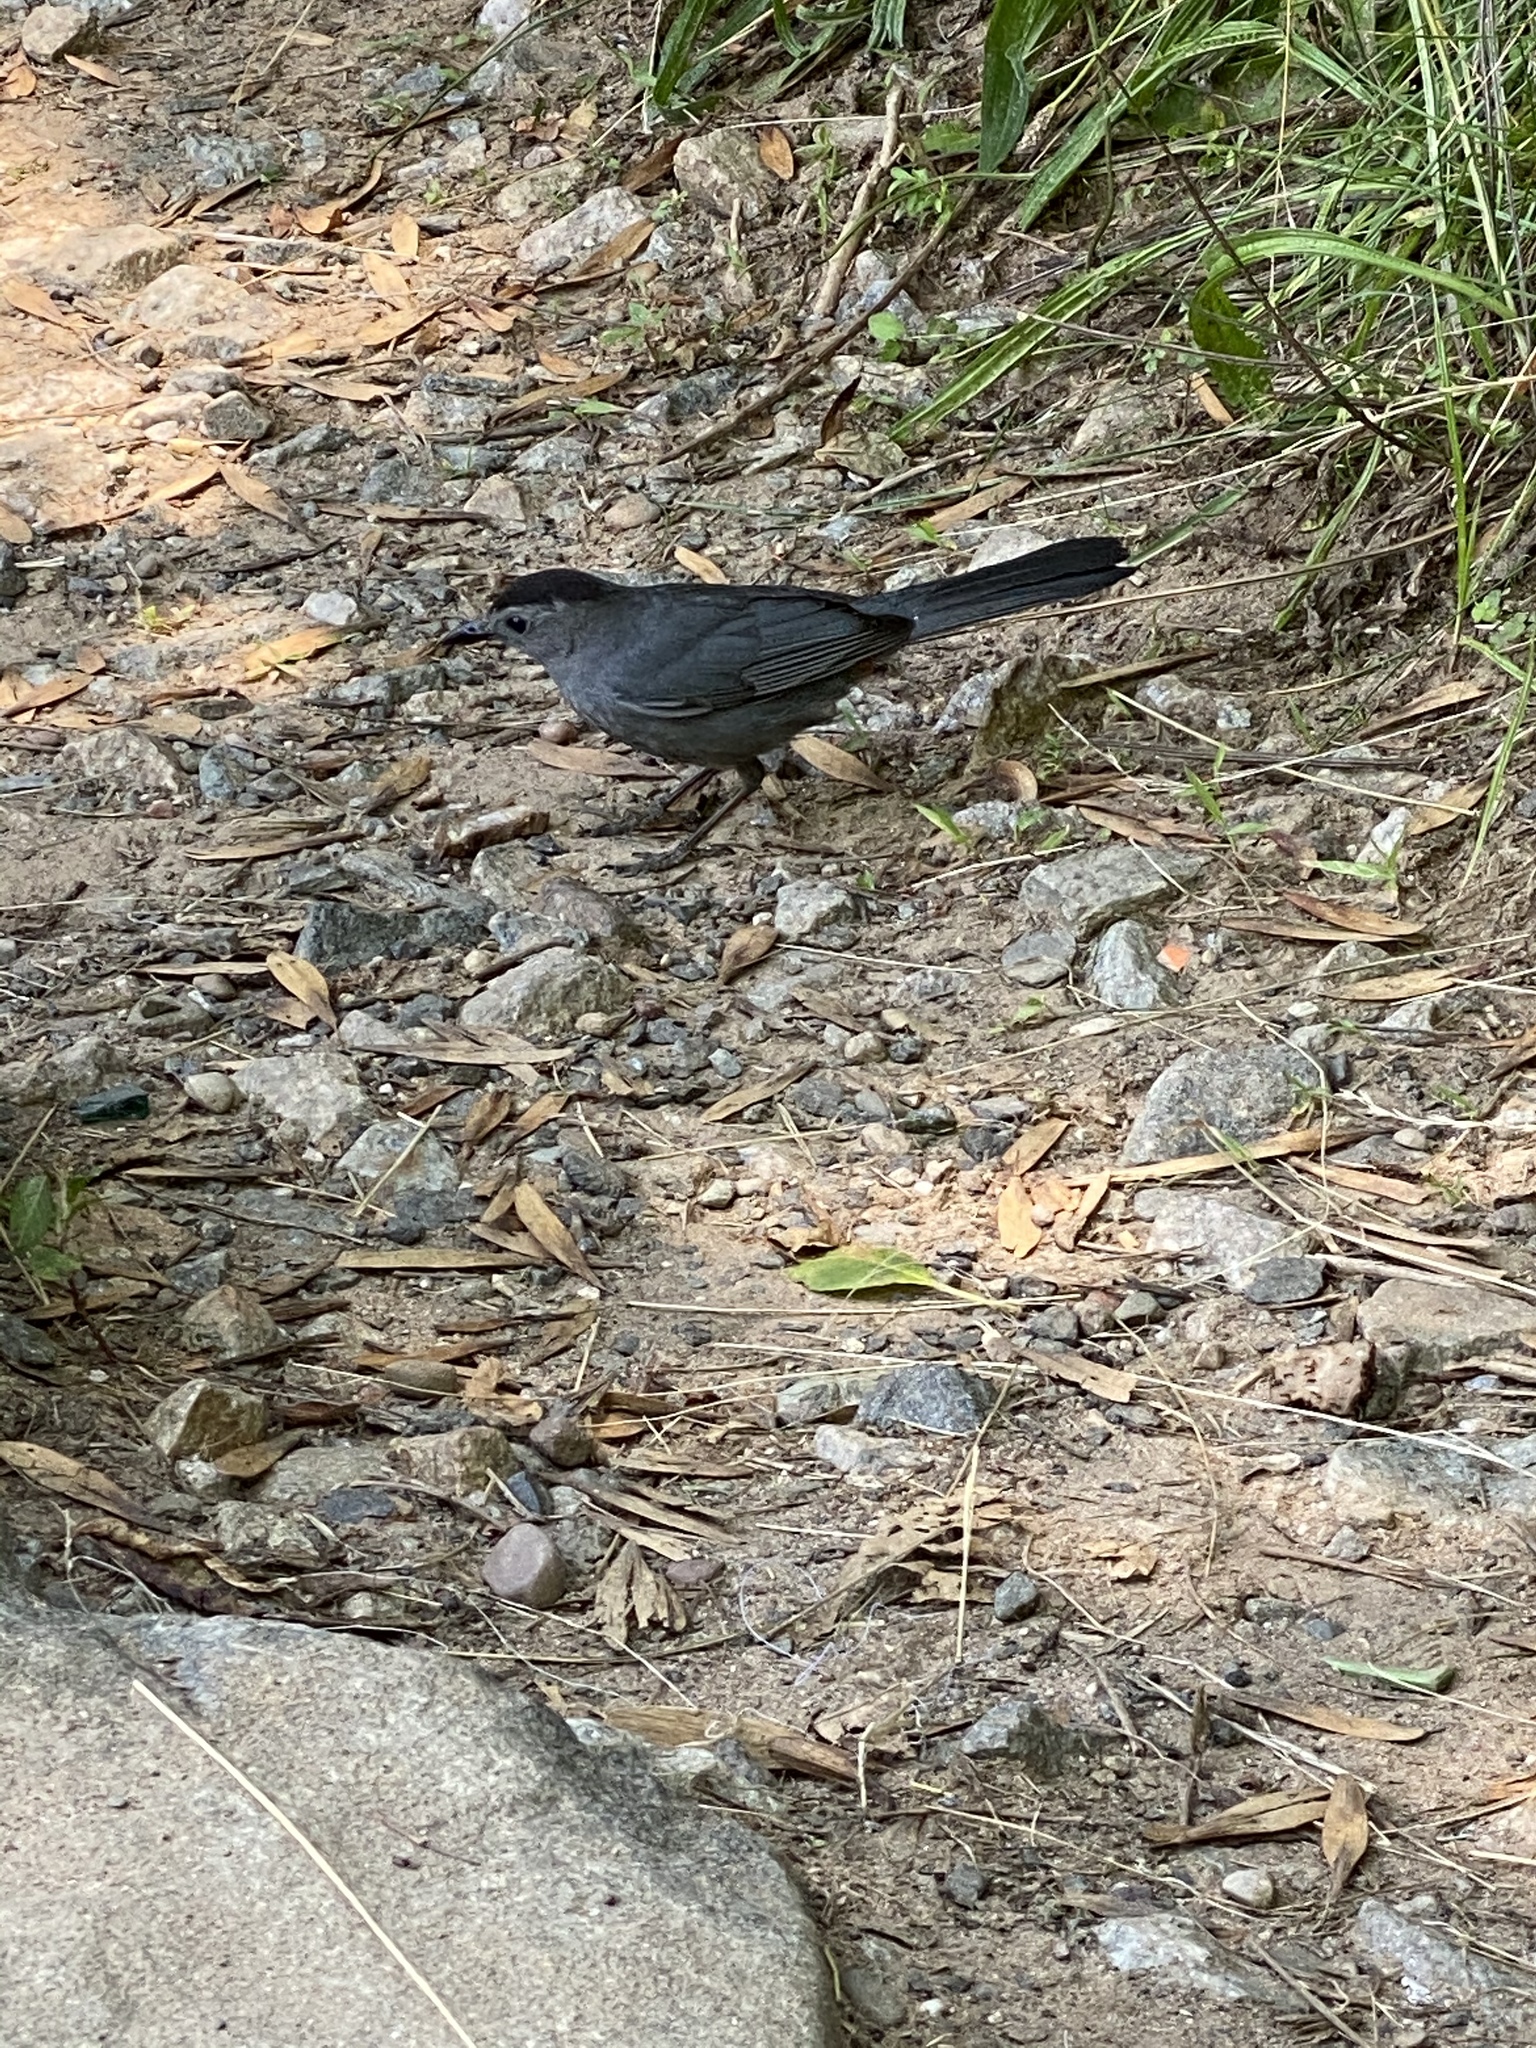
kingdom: Animalia
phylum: Chordata
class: Aves
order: Passeriformes
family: Mimidae
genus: Dumetella
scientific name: Dumetella carolinensis
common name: Gray catbird
